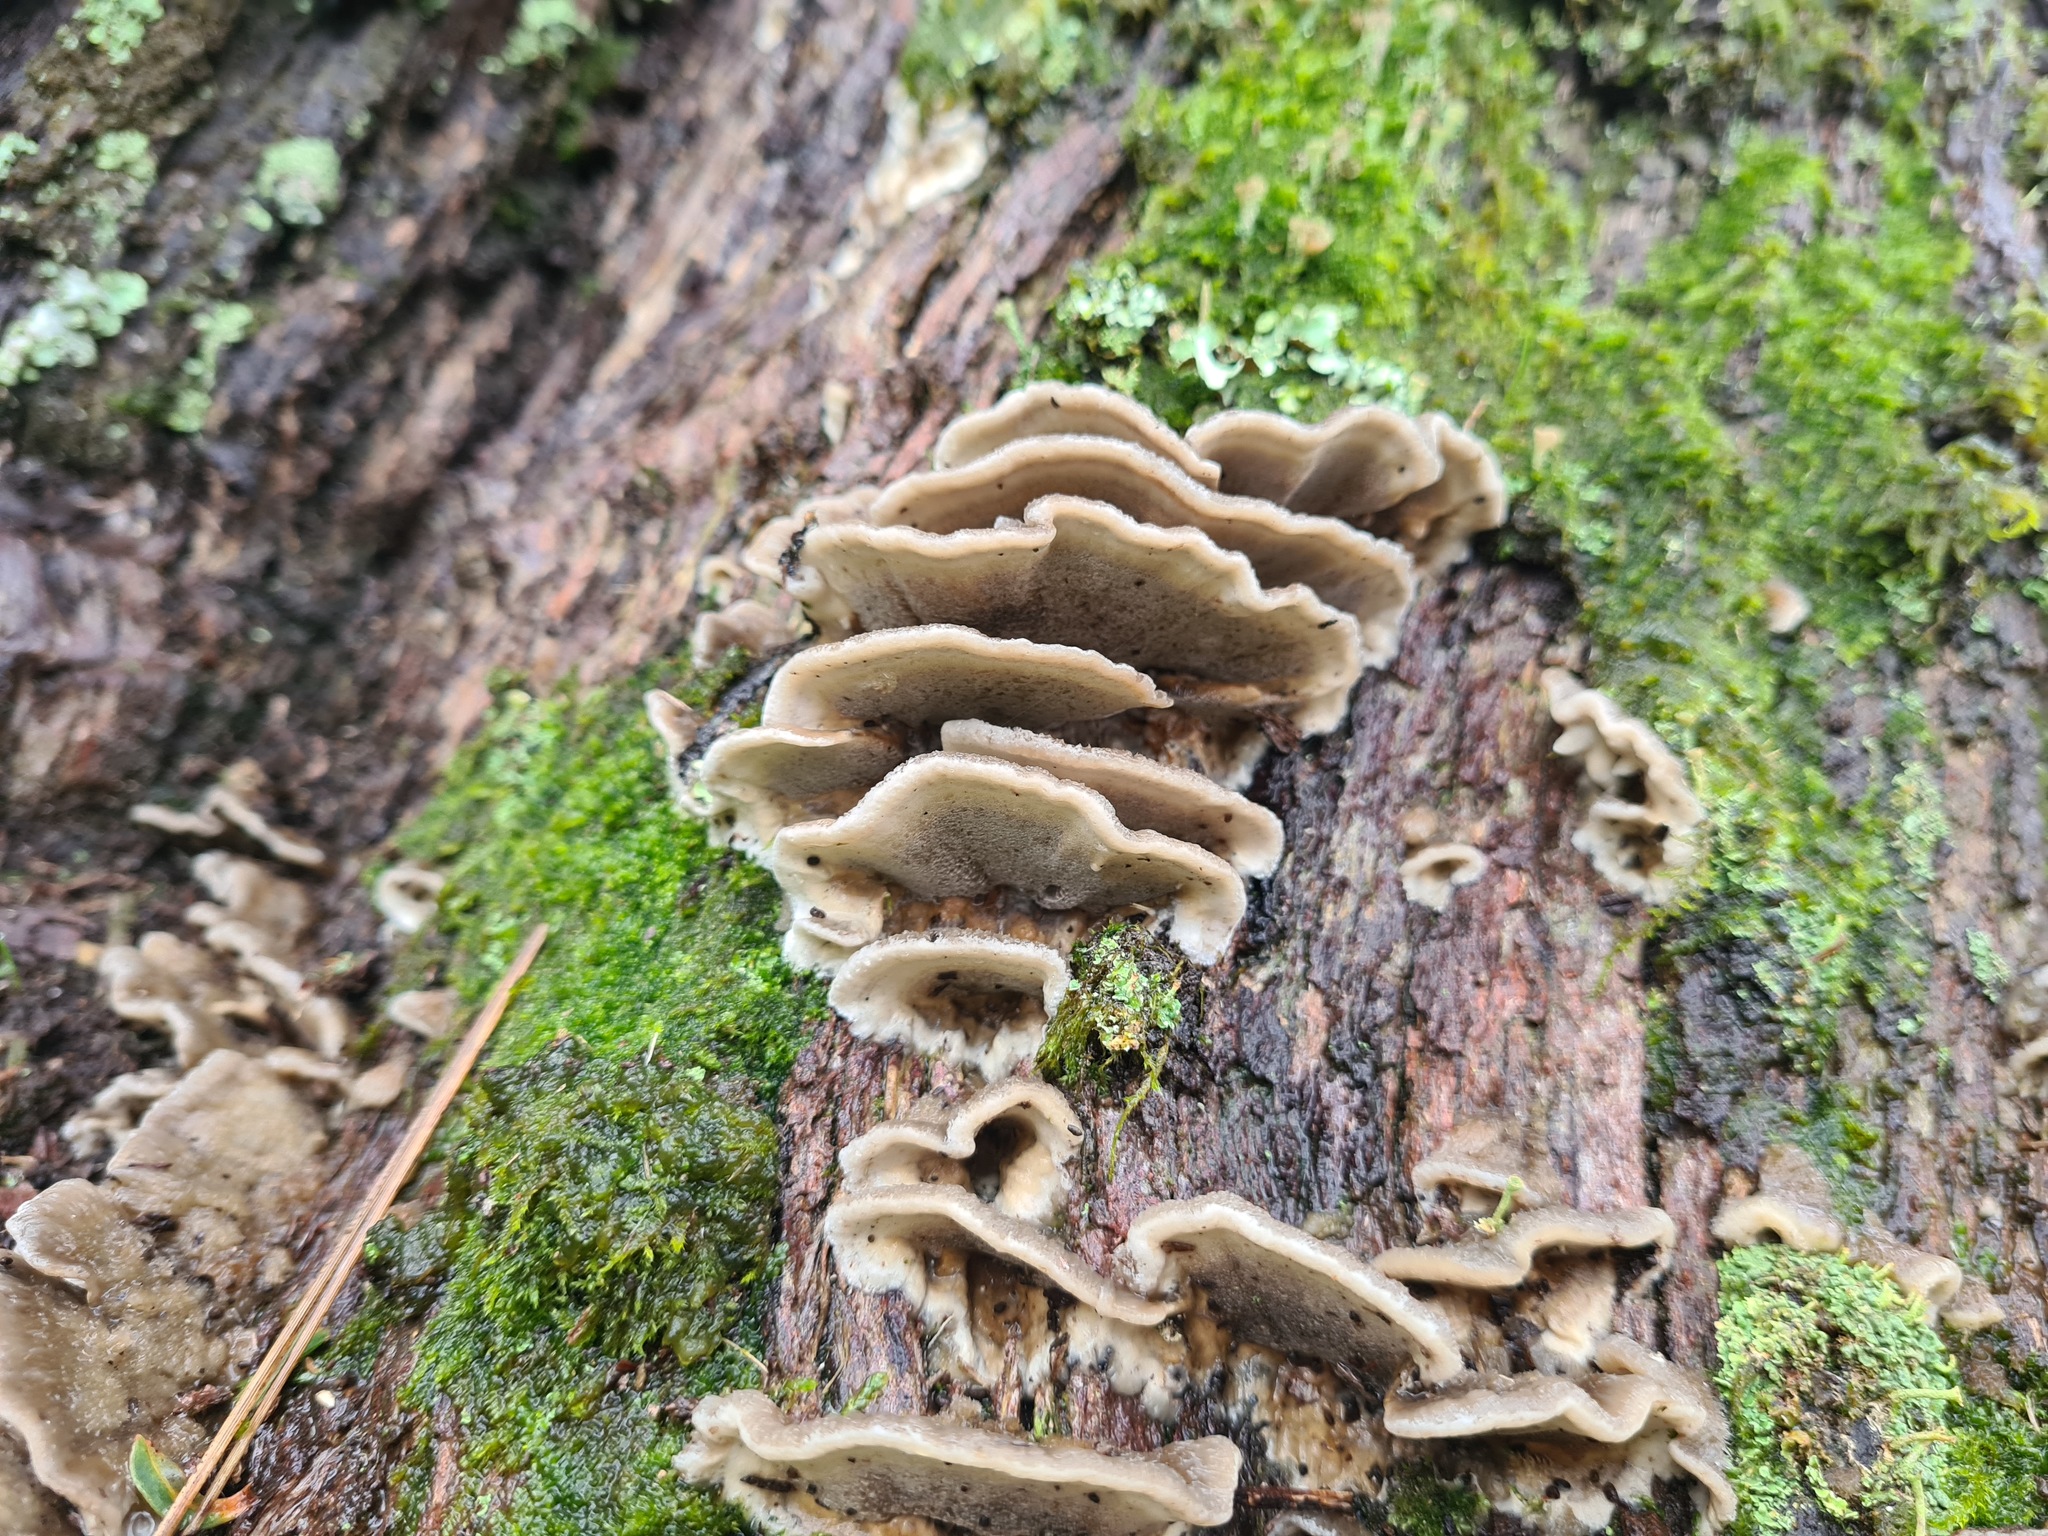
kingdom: Fungi
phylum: Basidiomycota
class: Agaricomycetes
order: Polyporales
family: Phanerochaetaceae
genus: Bjerkandera
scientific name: Bjerkandera adusta
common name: Smoky bracket
